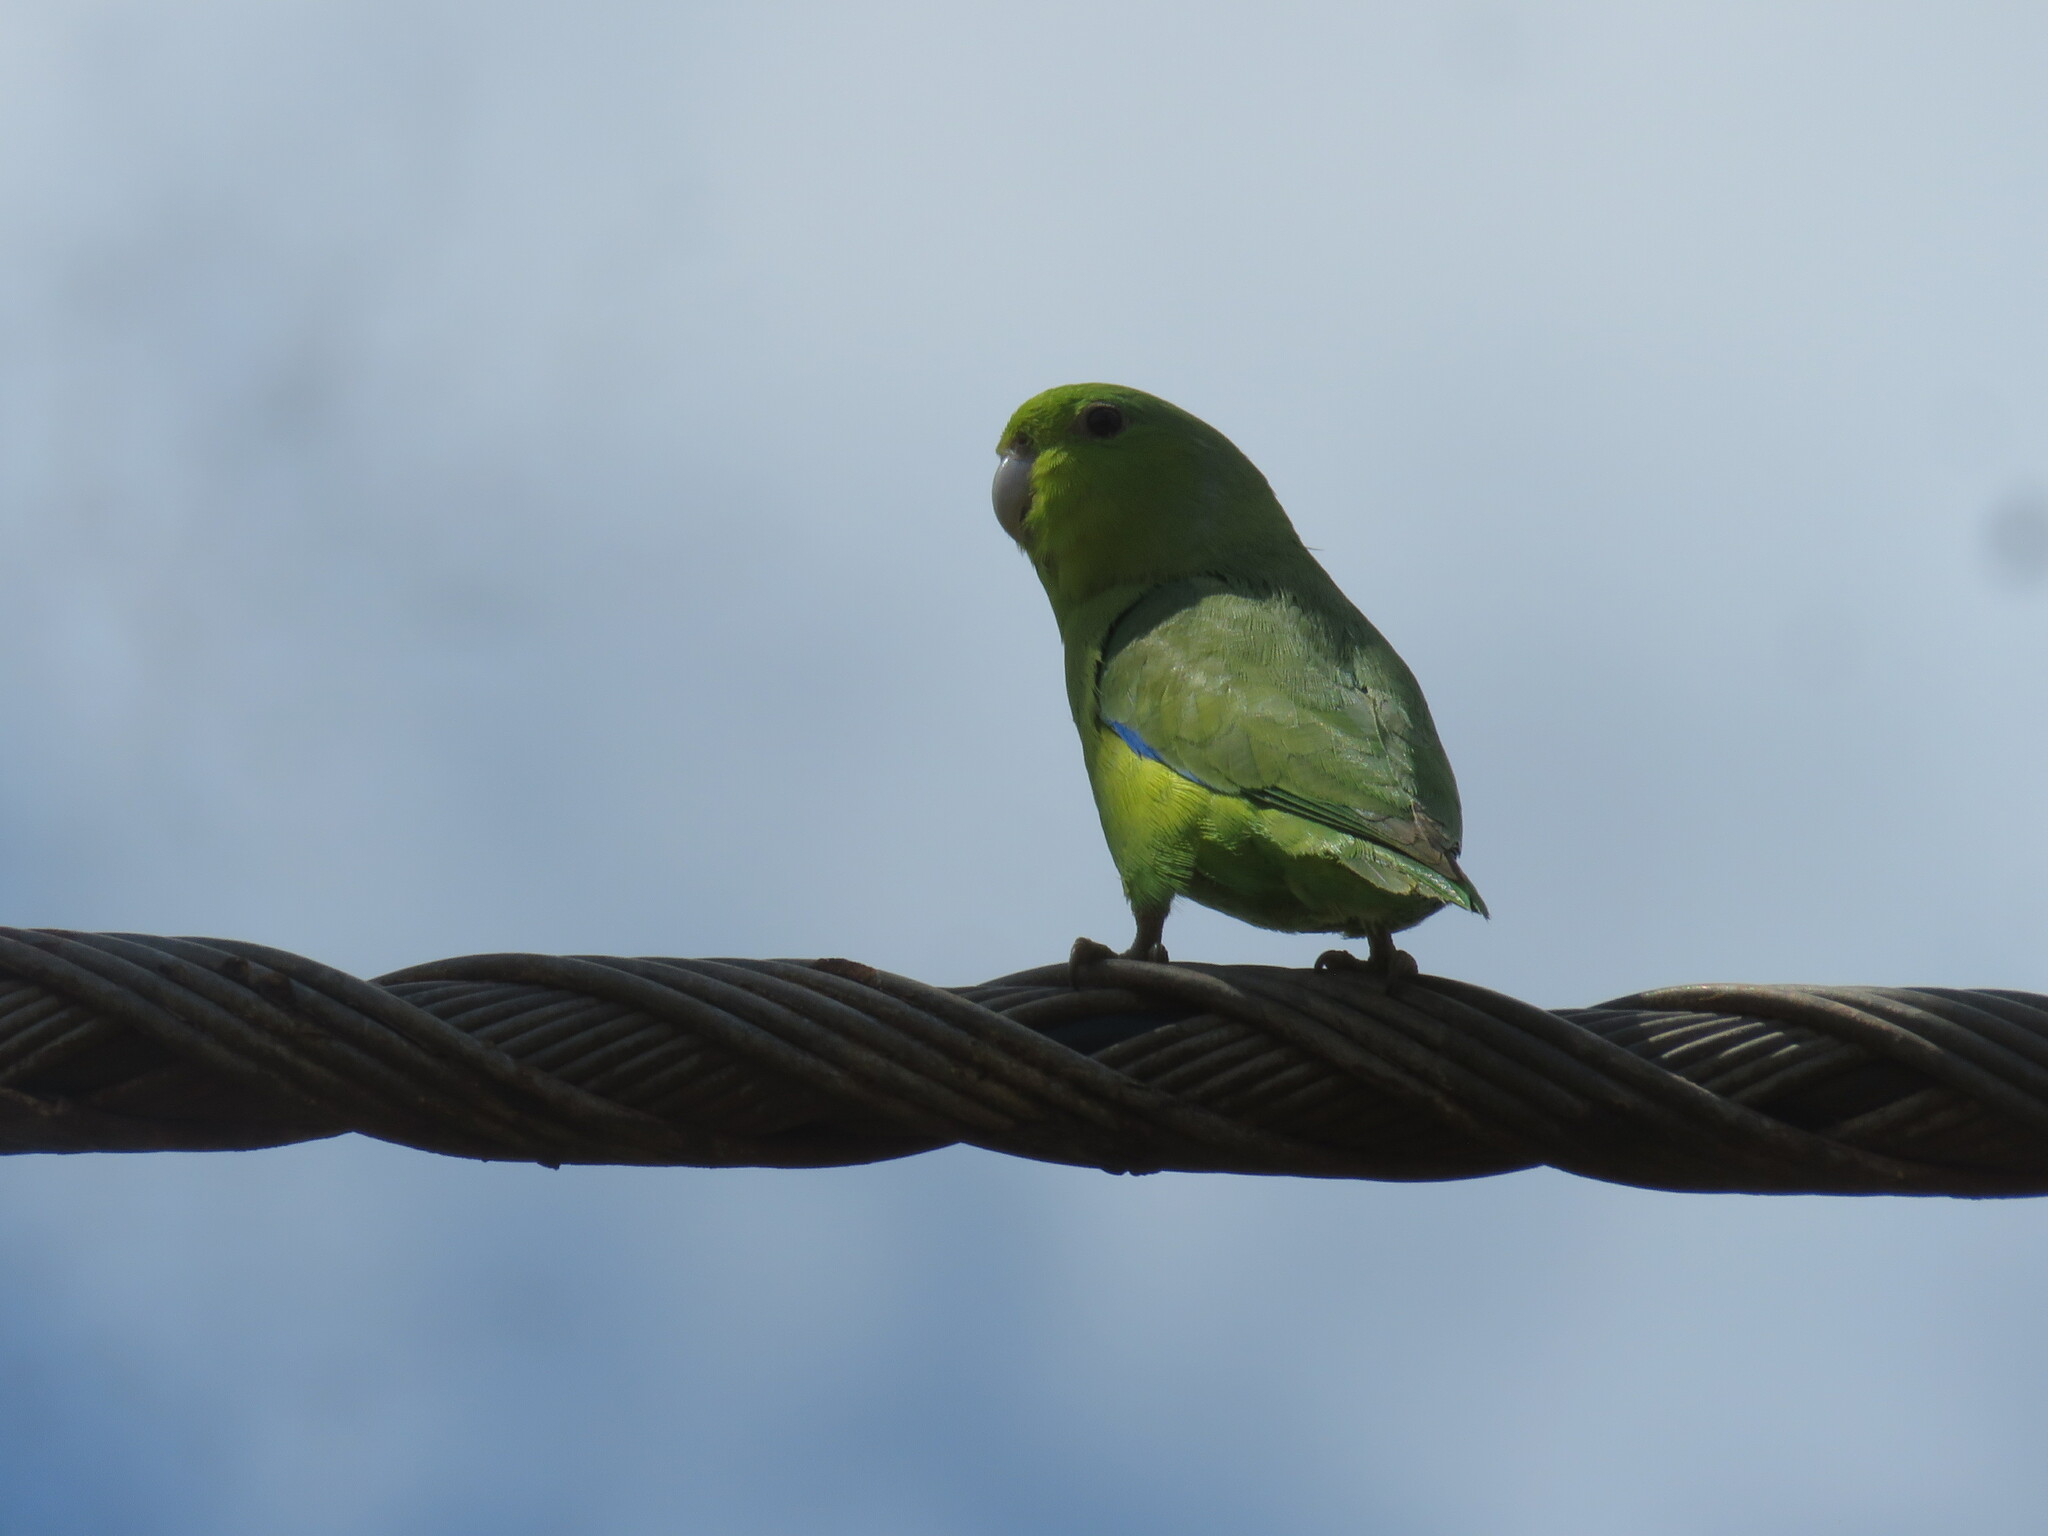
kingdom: Animalia
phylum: Chordata
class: Aves
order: Psittaciformes
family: Psittacidae
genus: Forpus
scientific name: Forpus xanthopterygius
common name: Blue-winged parrotlet
